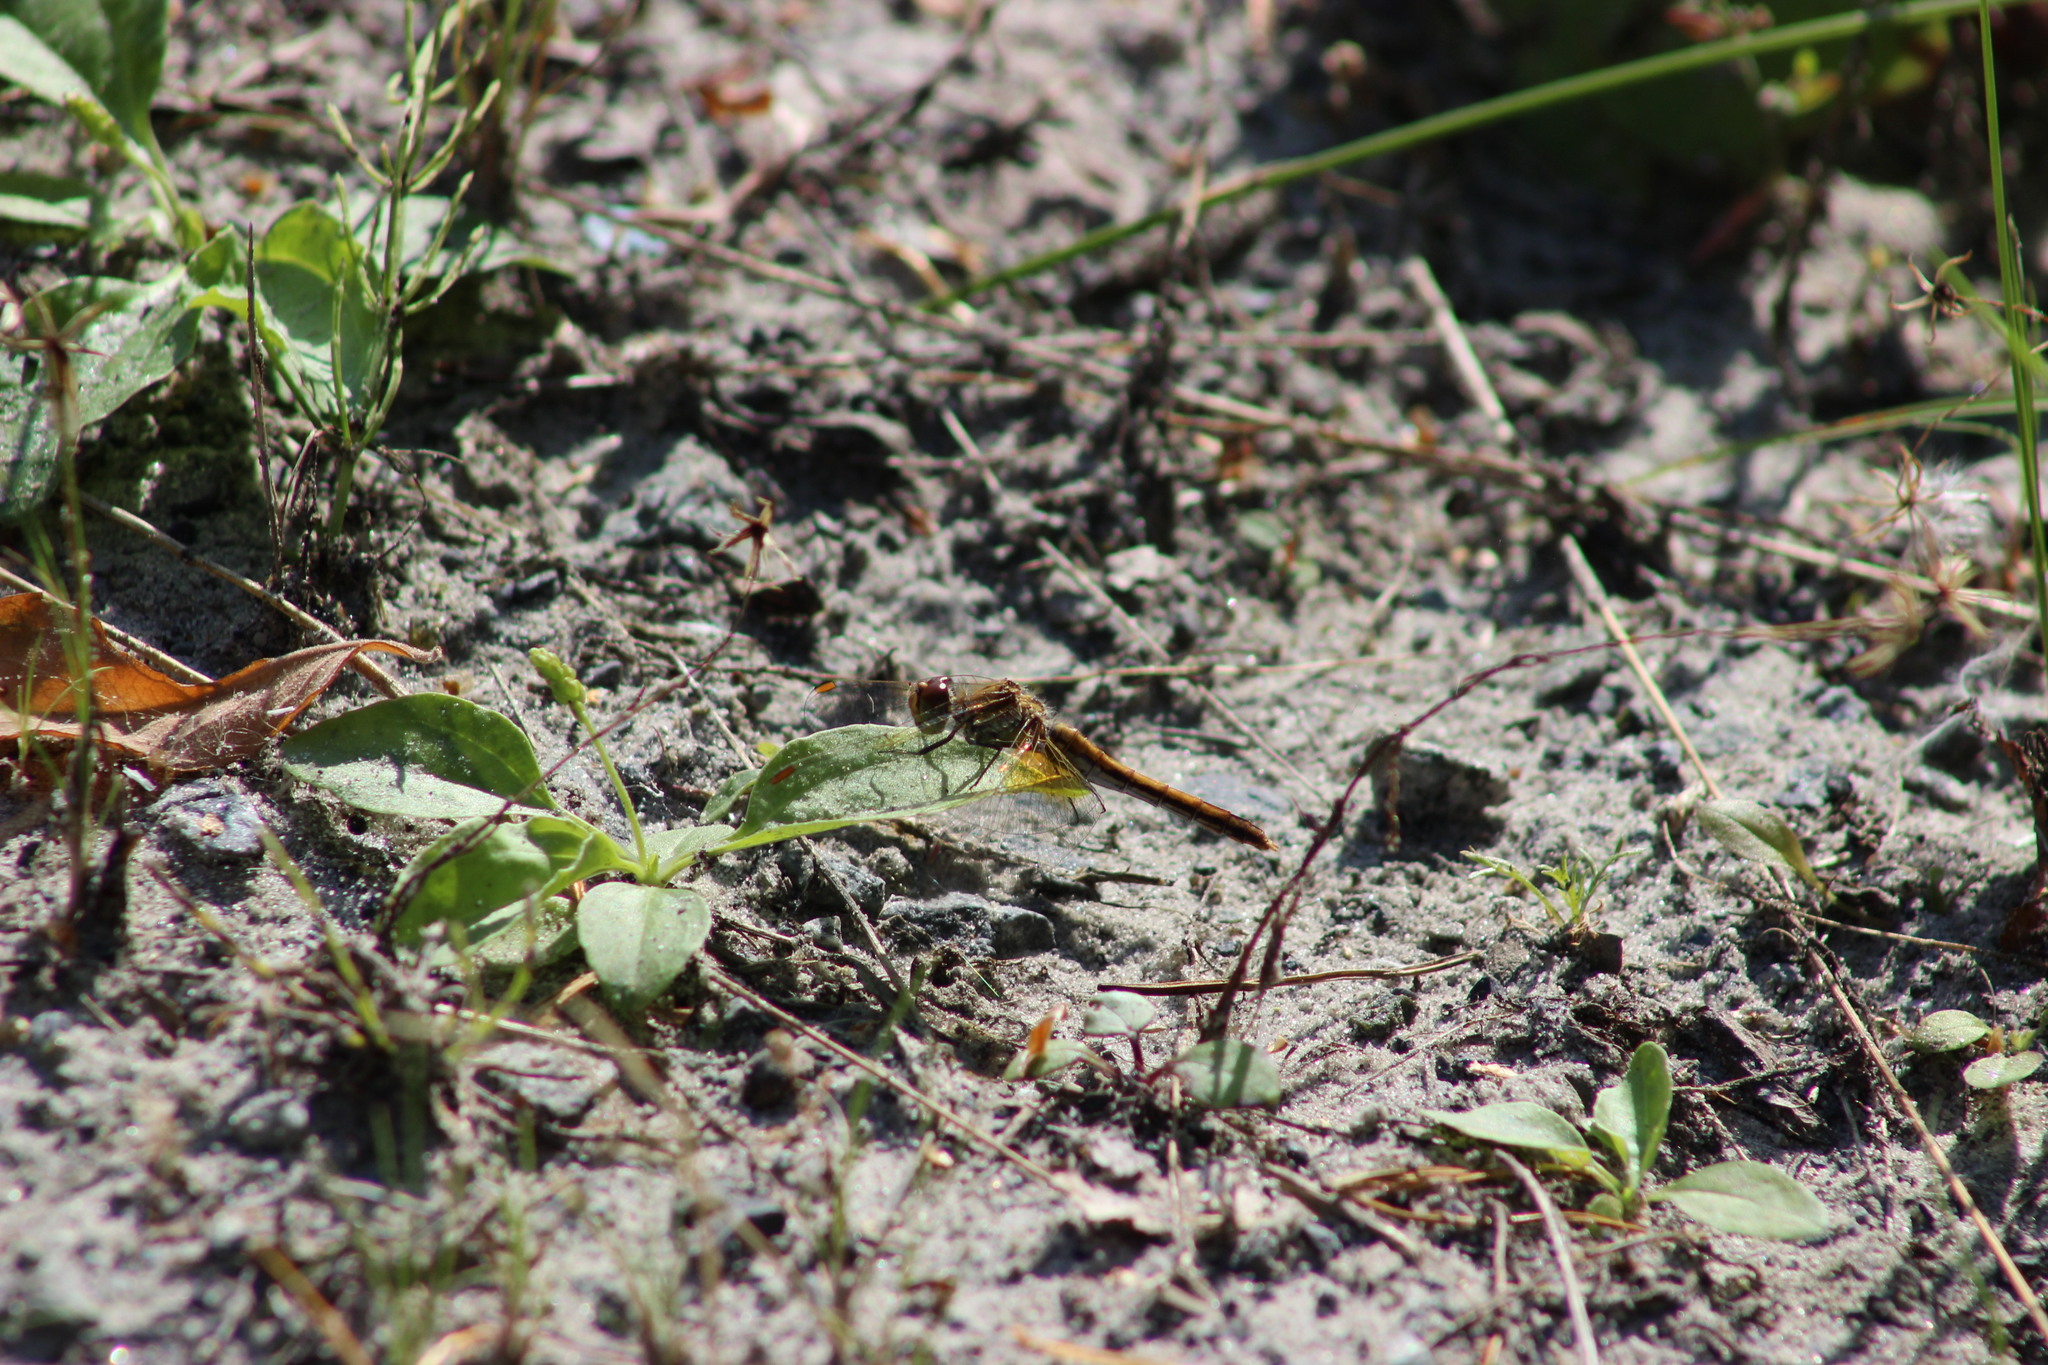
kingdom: Animalia
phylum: Arthropoda
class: Insecta
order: Odonata
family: Libellulidae
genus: Sympetrum
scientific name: Sympetrum flaveolum
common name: Yellow-winged darter
